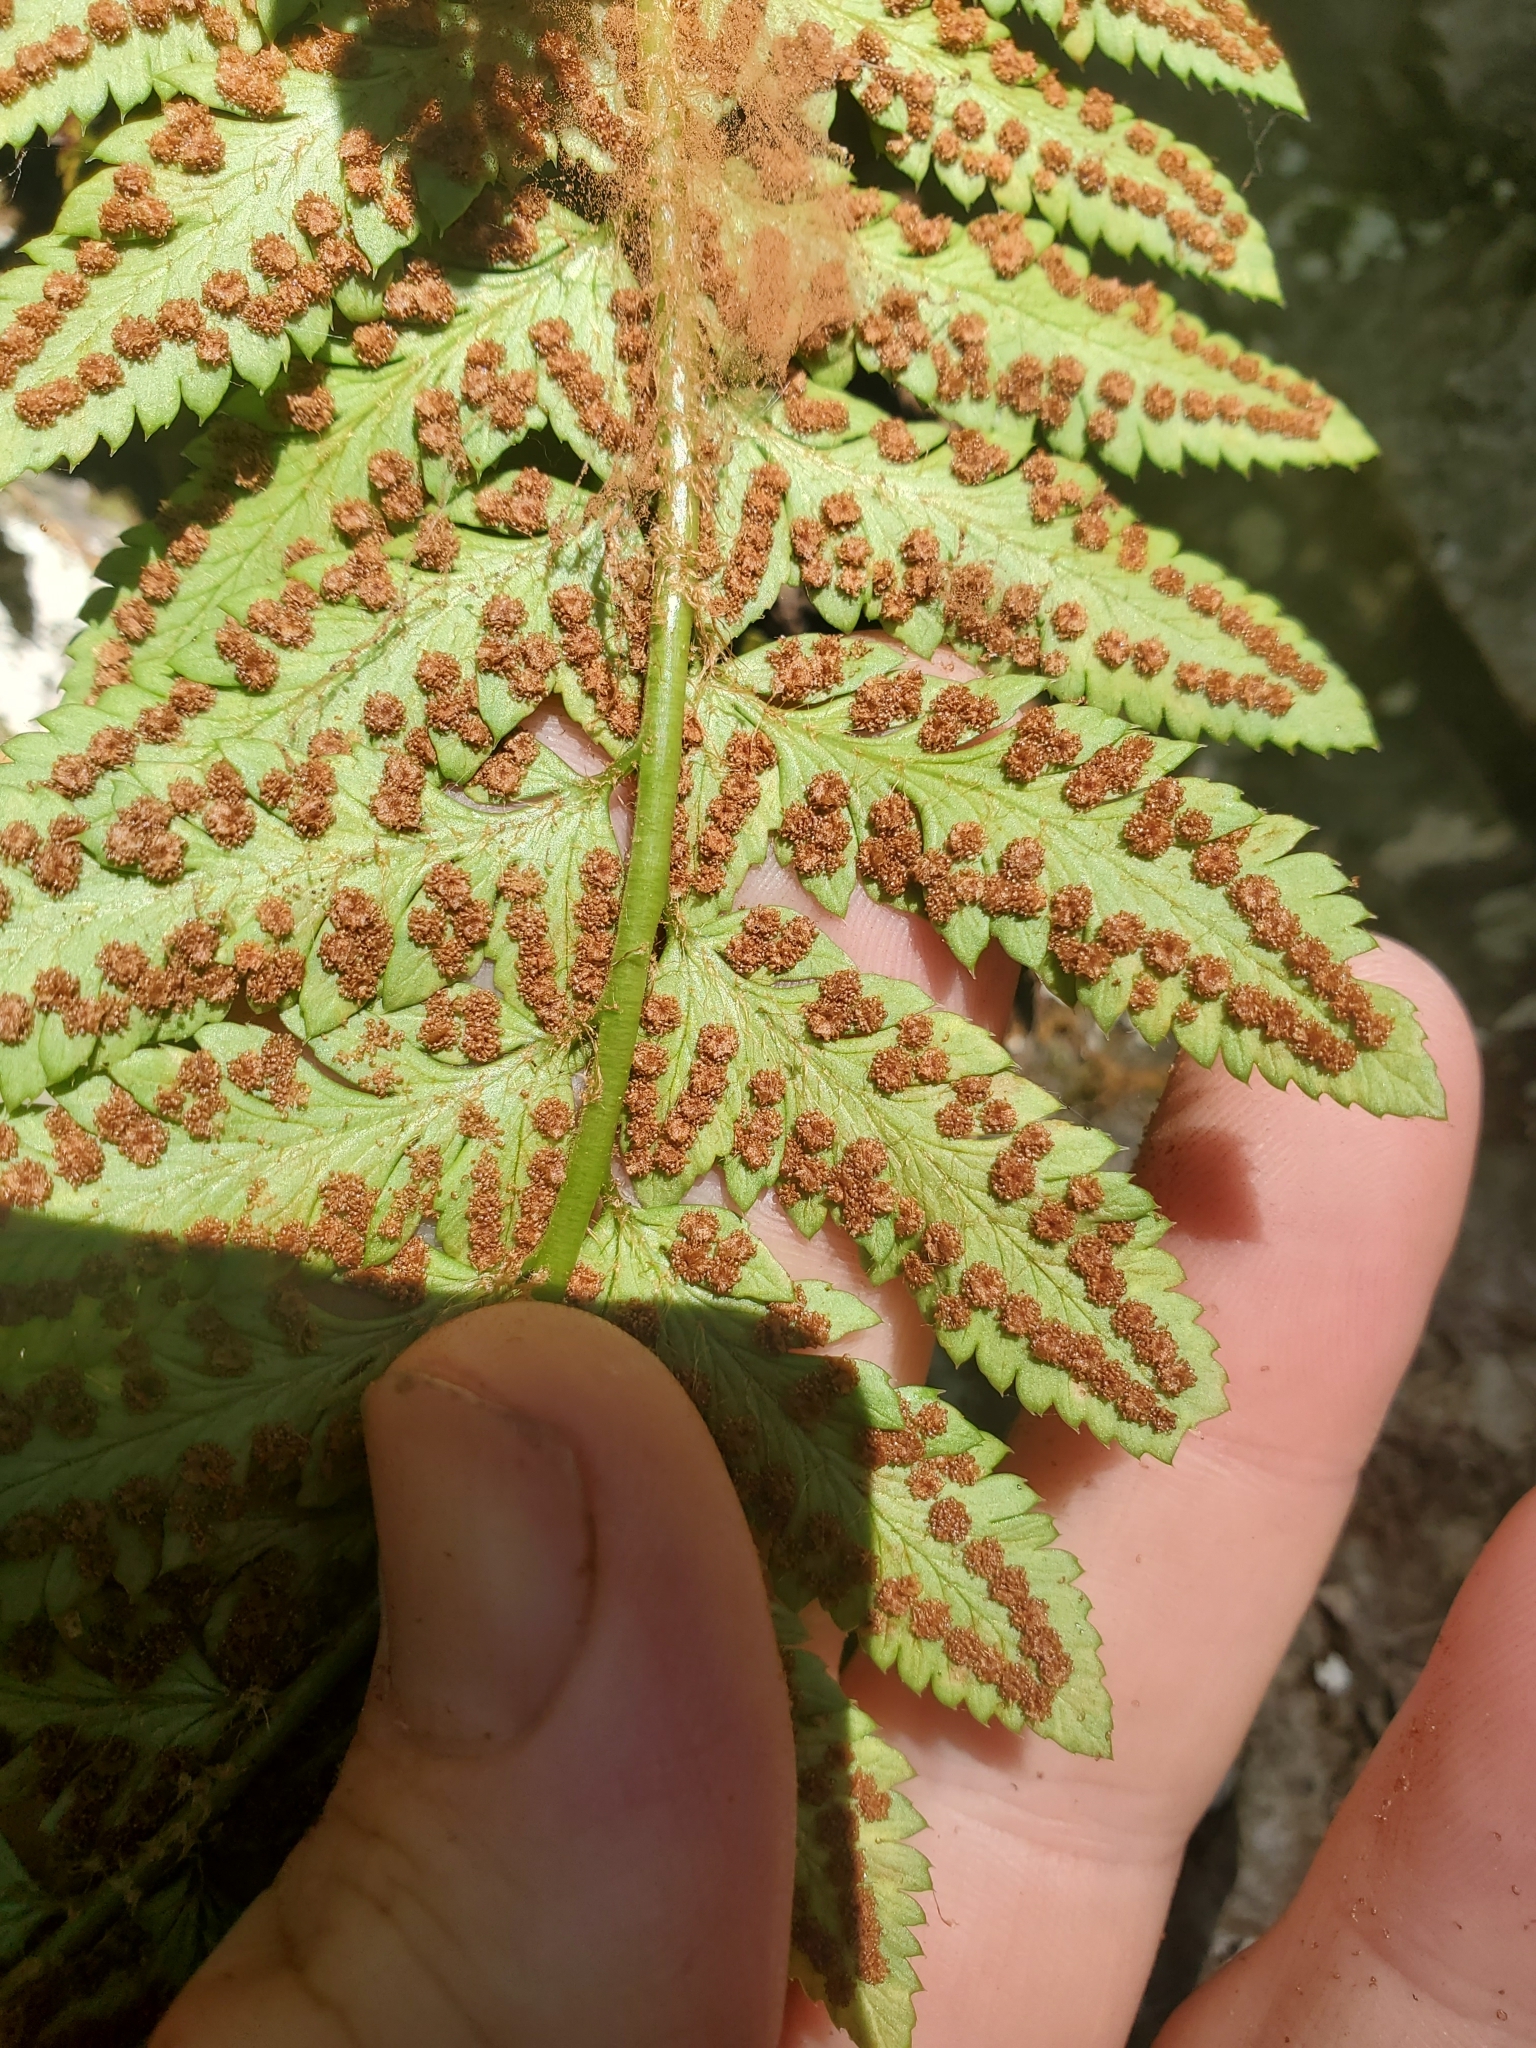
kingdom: Plantae
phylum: Tracheophyta
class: Polypodiopsida
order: Polypodiales
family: Dryopteridaceae
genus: Polystichum
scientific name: Polystichum californicum
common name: California sword fern
